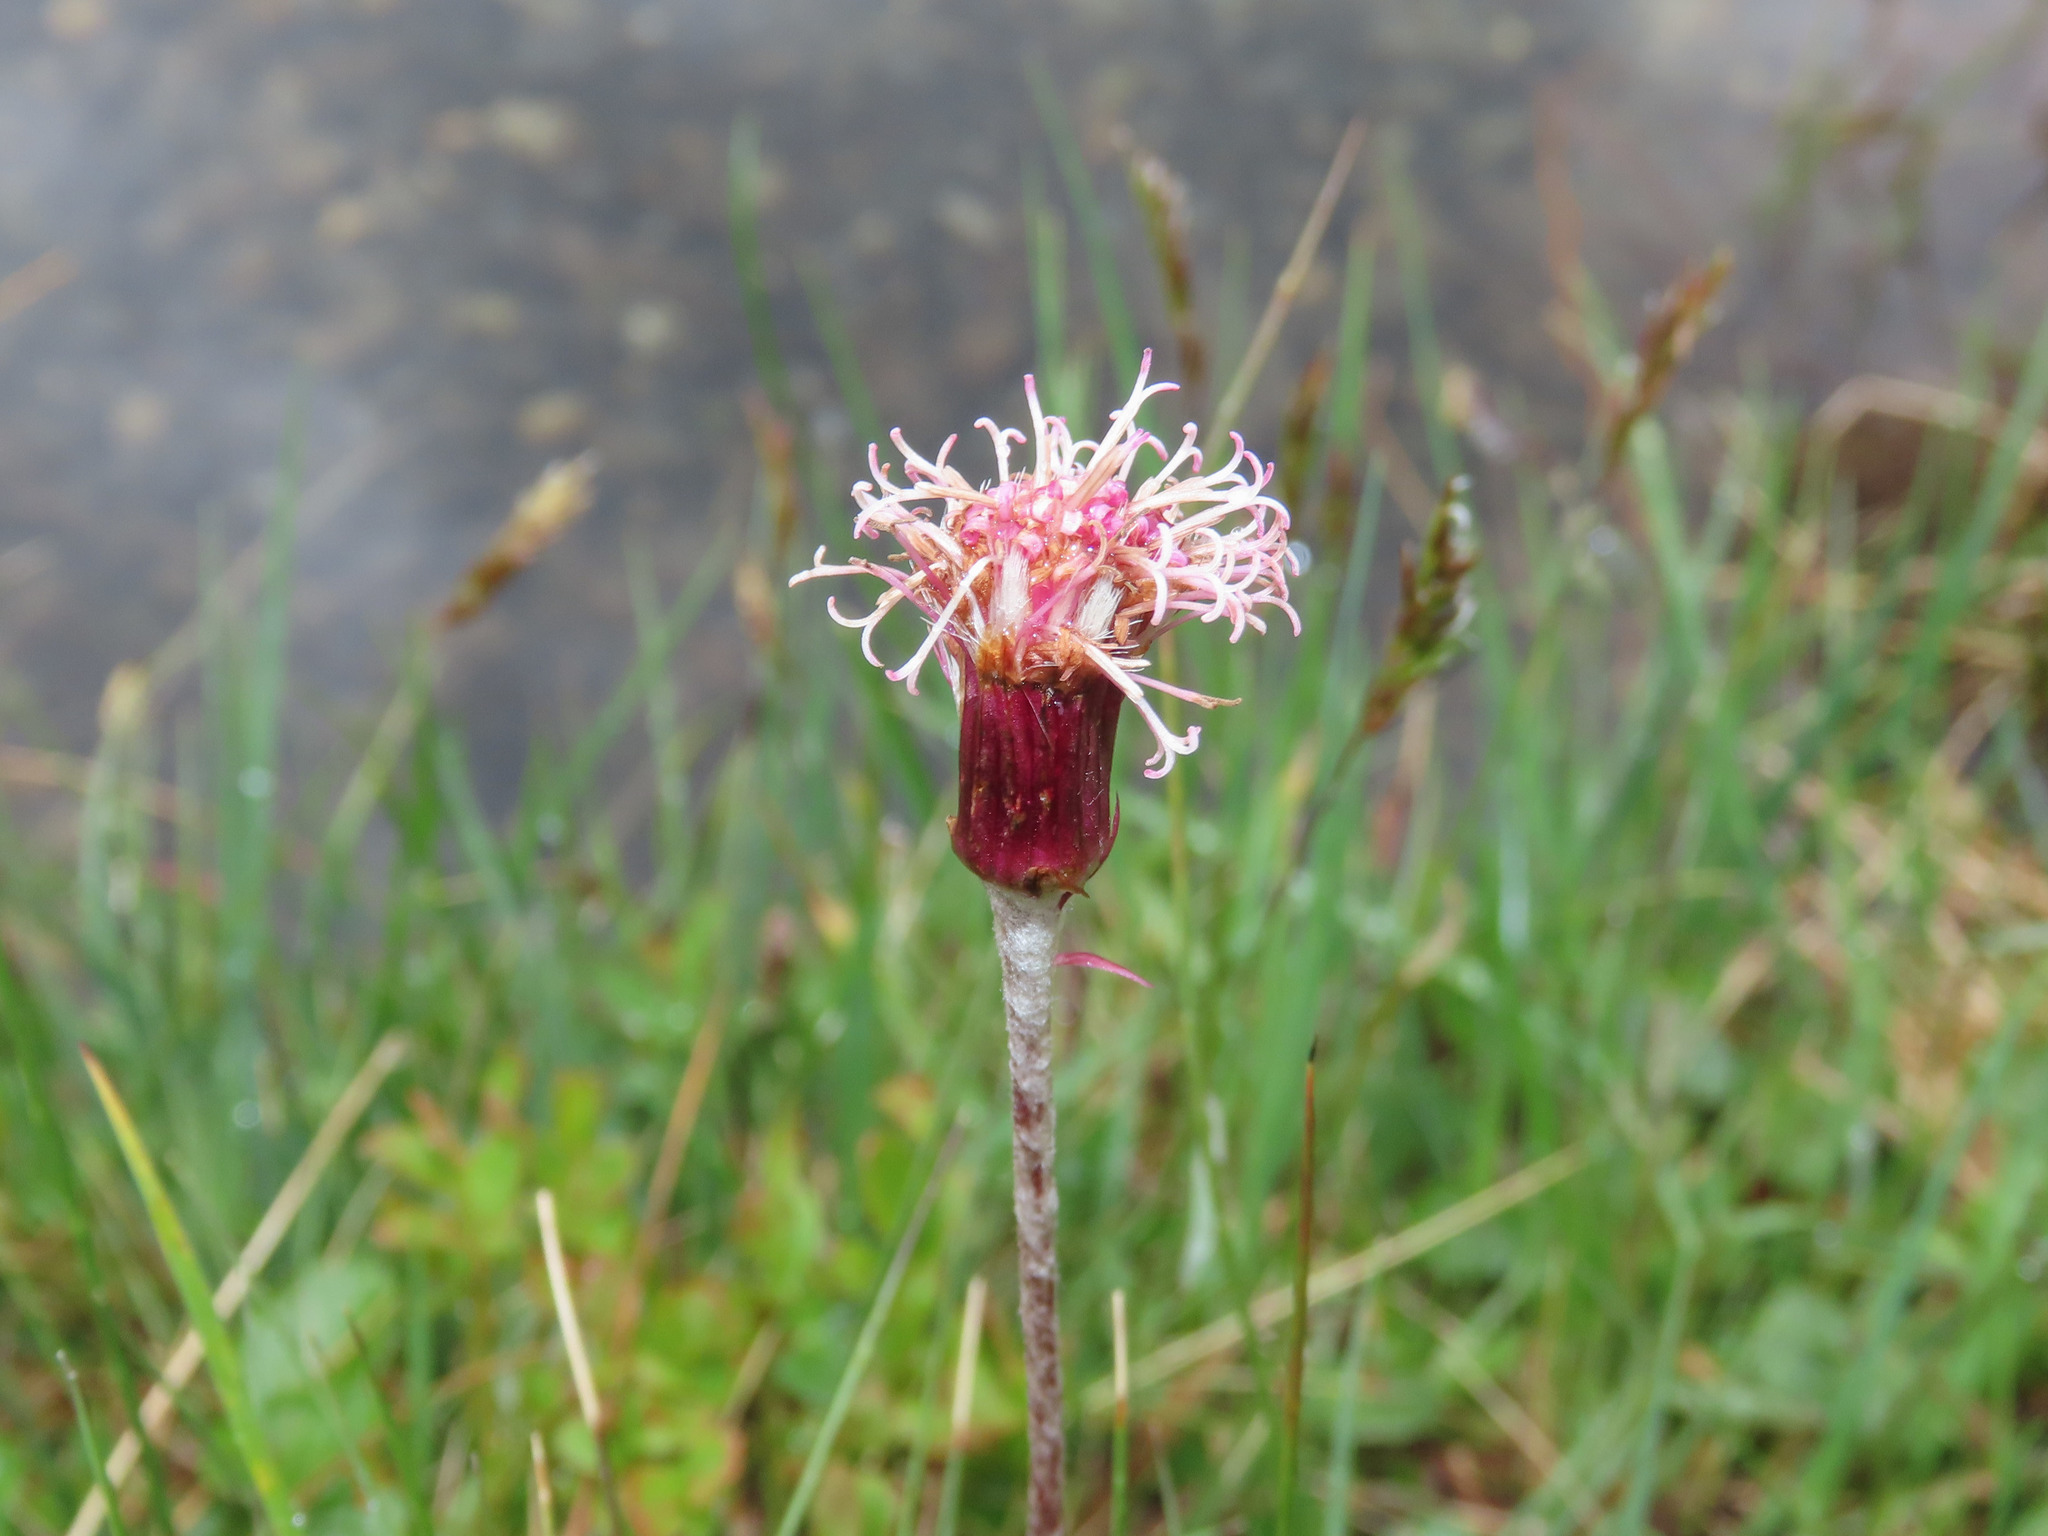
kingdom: Plantae
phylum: Tracheophyta
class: Magnoliopsida
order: Asterales
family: Asteraceae
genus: Homogyne
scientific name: Homogyne alpina
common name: Purple colt's-foot
